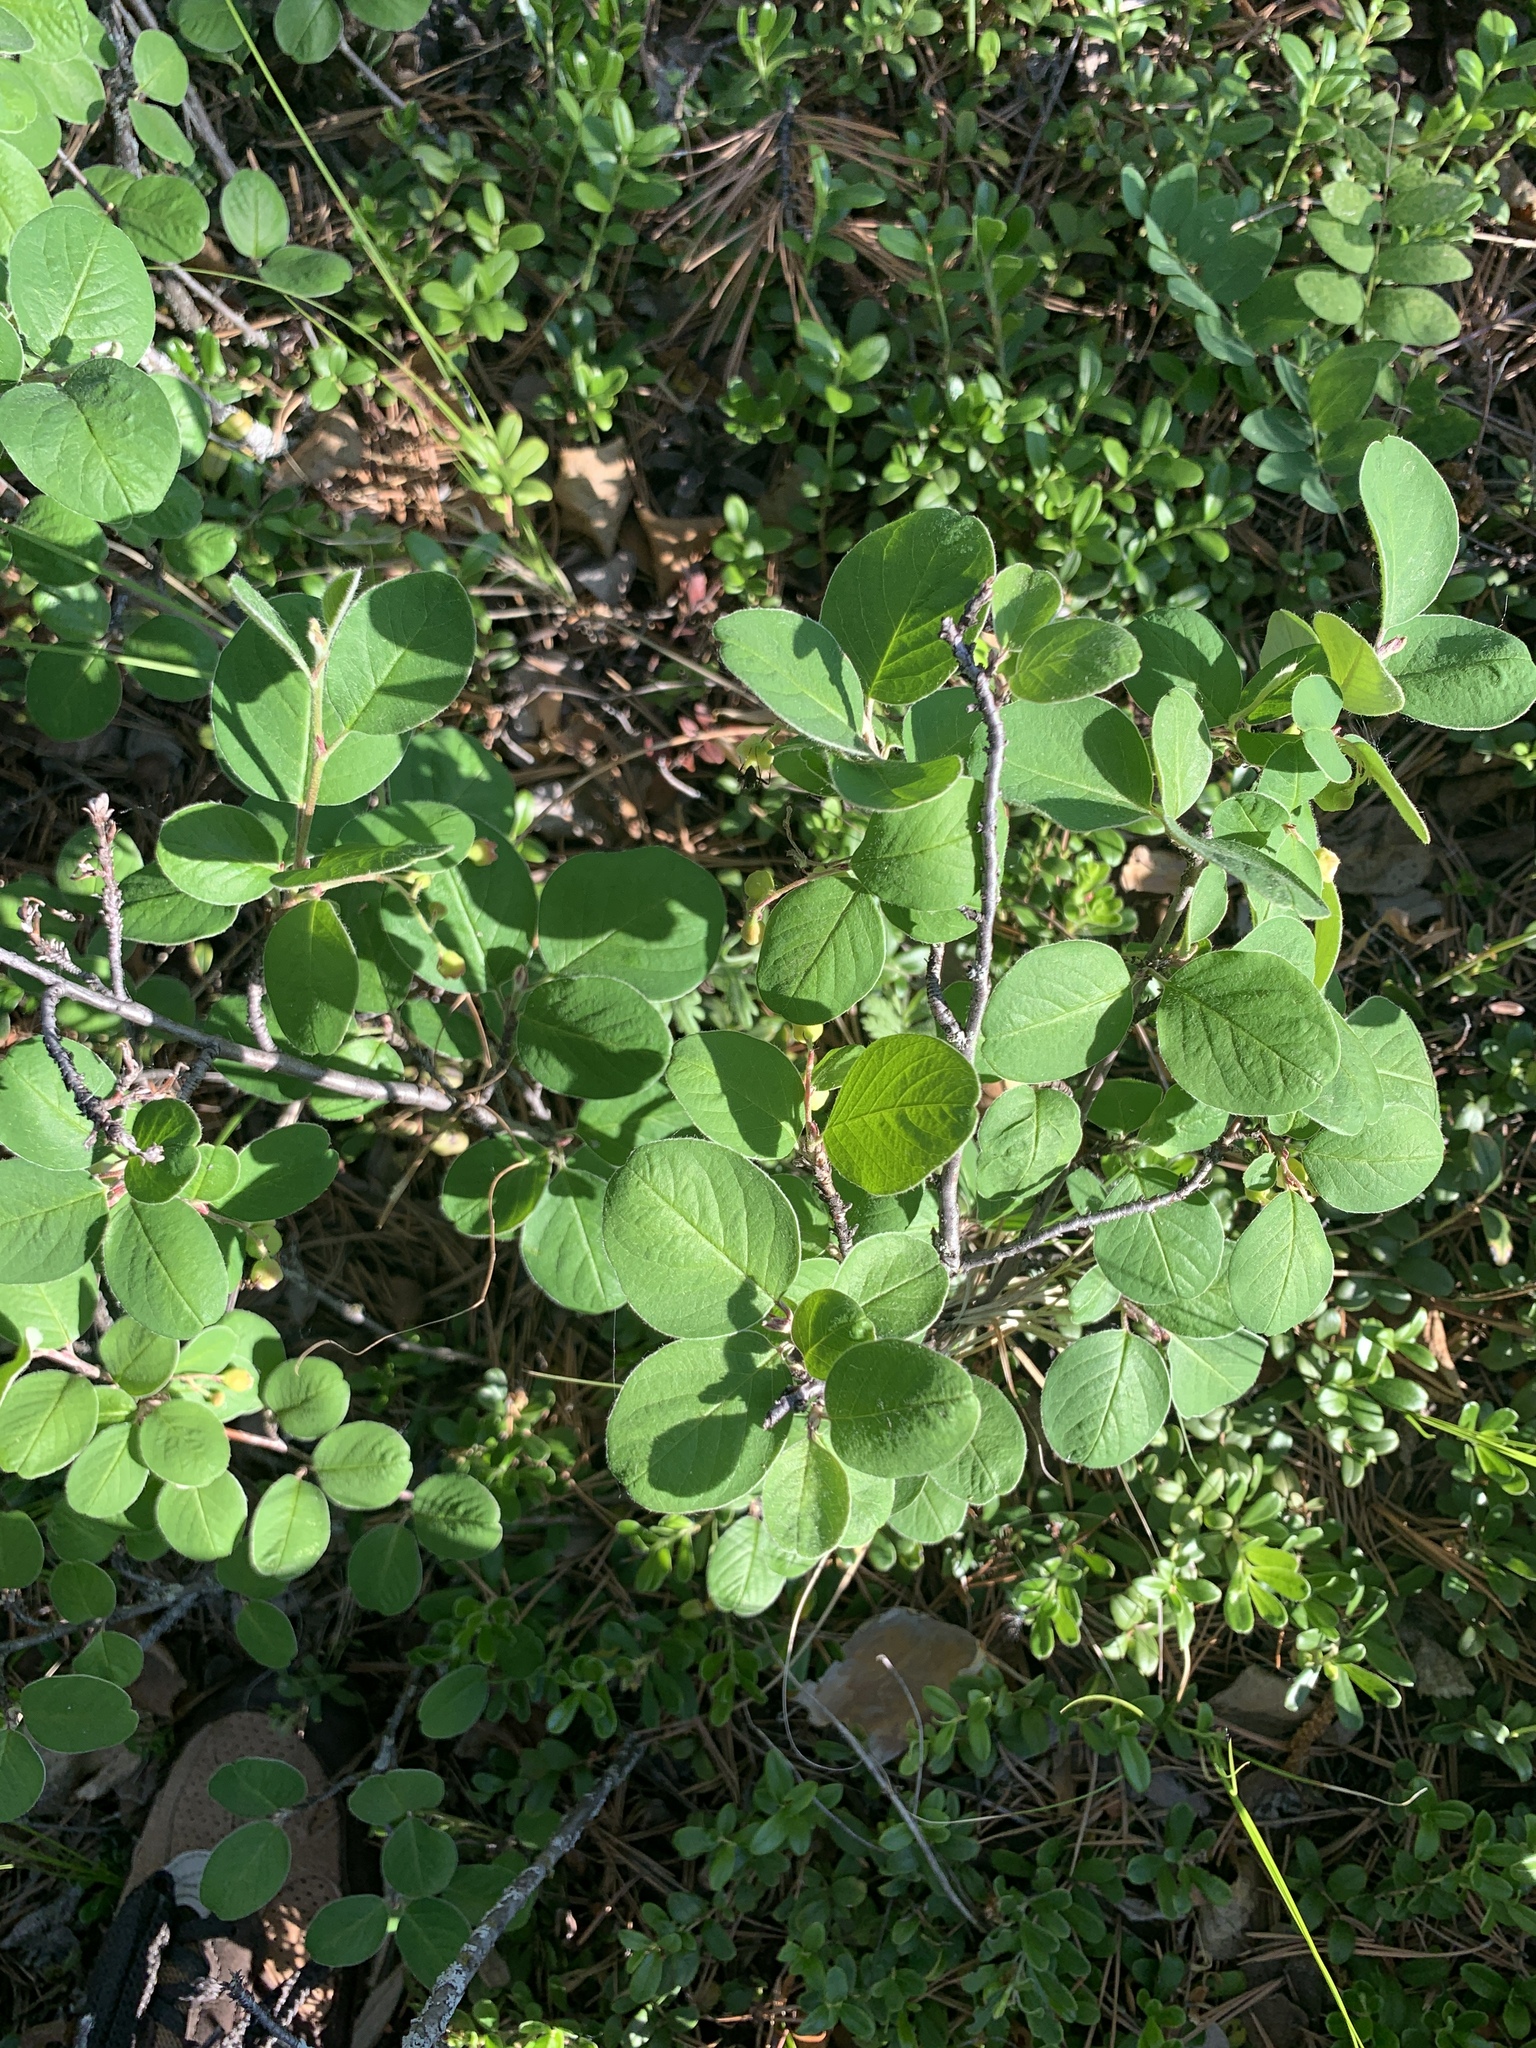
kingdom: Plantae
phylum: Tracheophyta
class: Magnoliopsida
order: Rosales
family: Rosaceae
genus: Cotoneaster
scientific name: Cotoneaster melanocarpus
